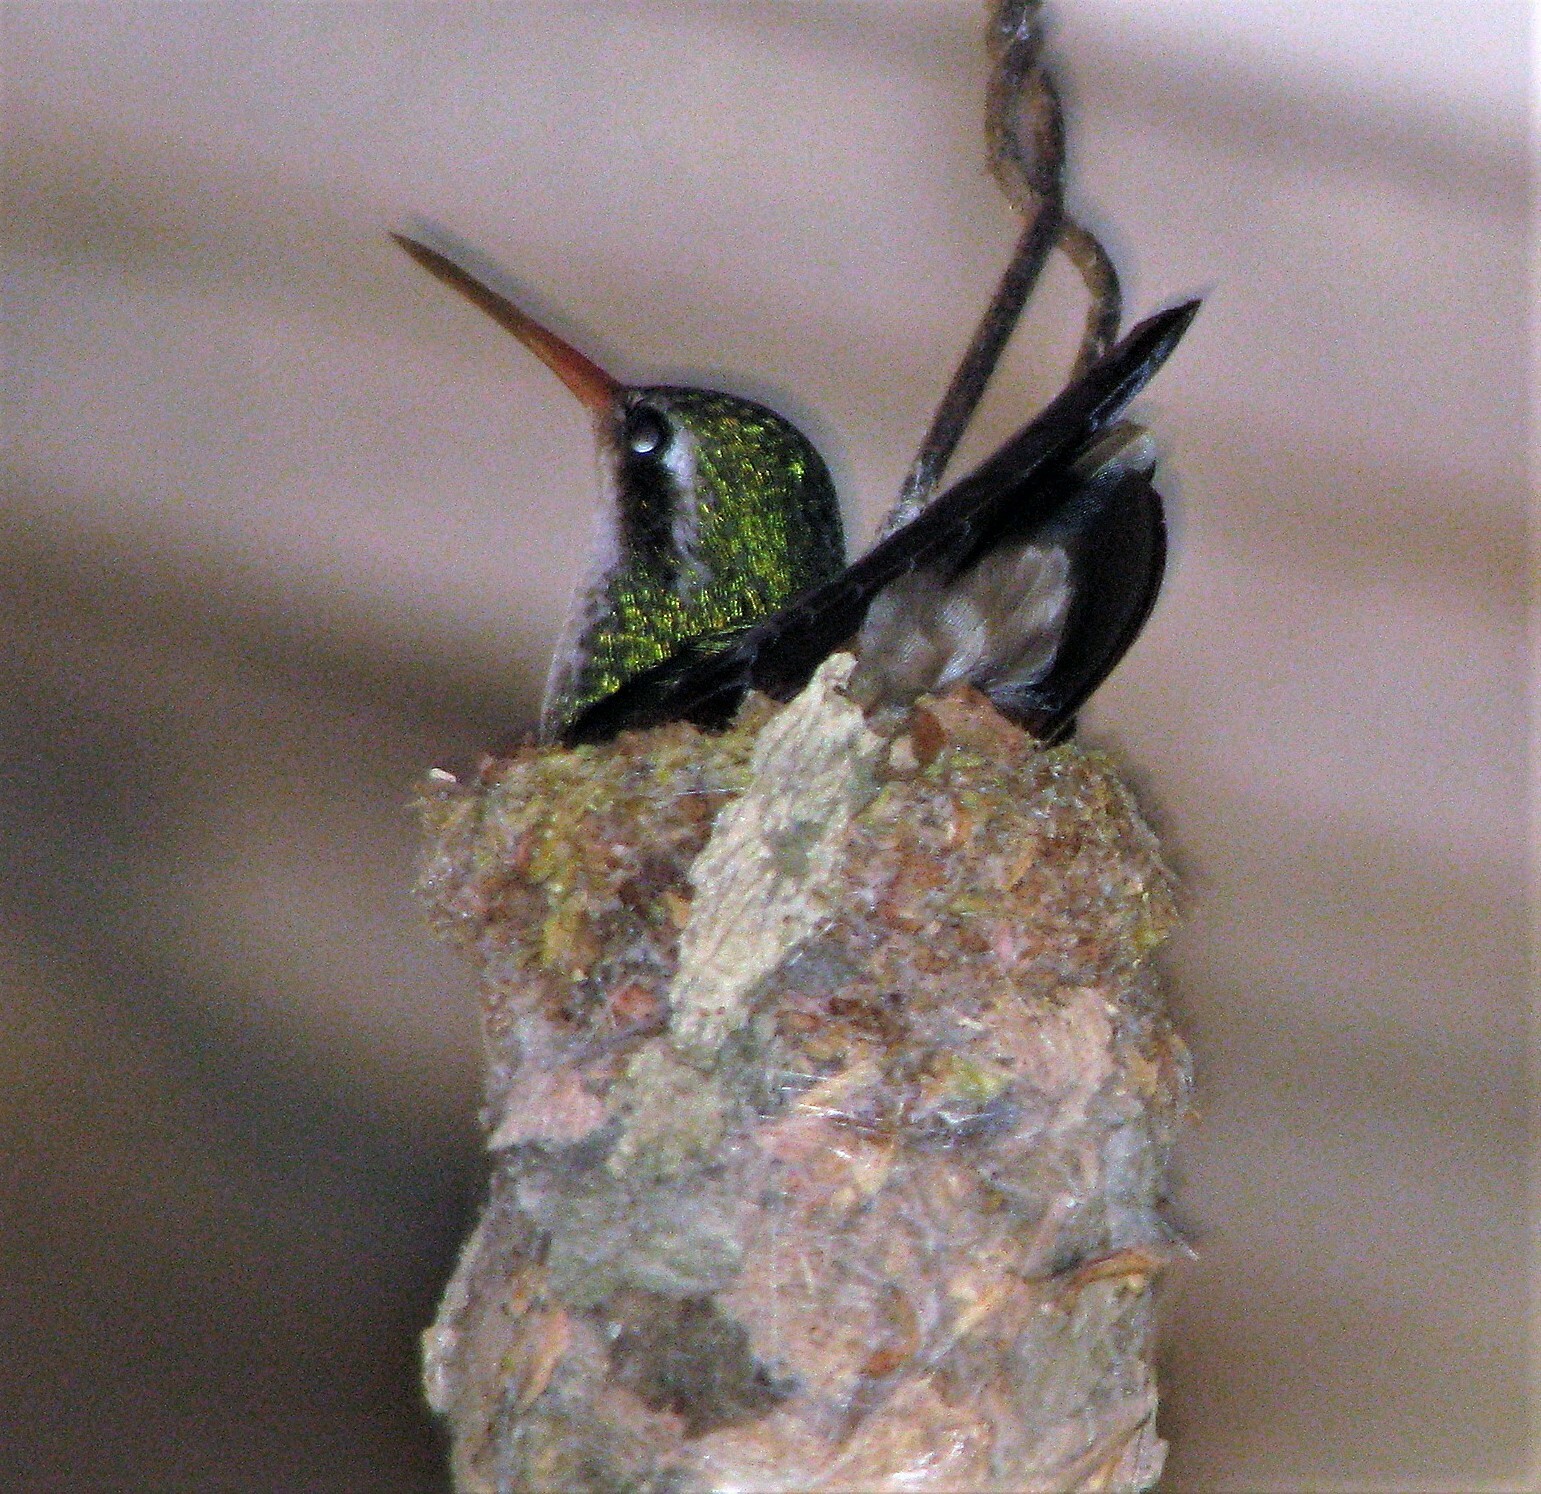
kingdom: Animalia
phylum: Chordata
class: Aves
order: Apodiformes
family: Trochilidae
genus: Chlorostilbon
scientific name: Chlorostilbon lucidus
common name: Glittering-bellied emerald
